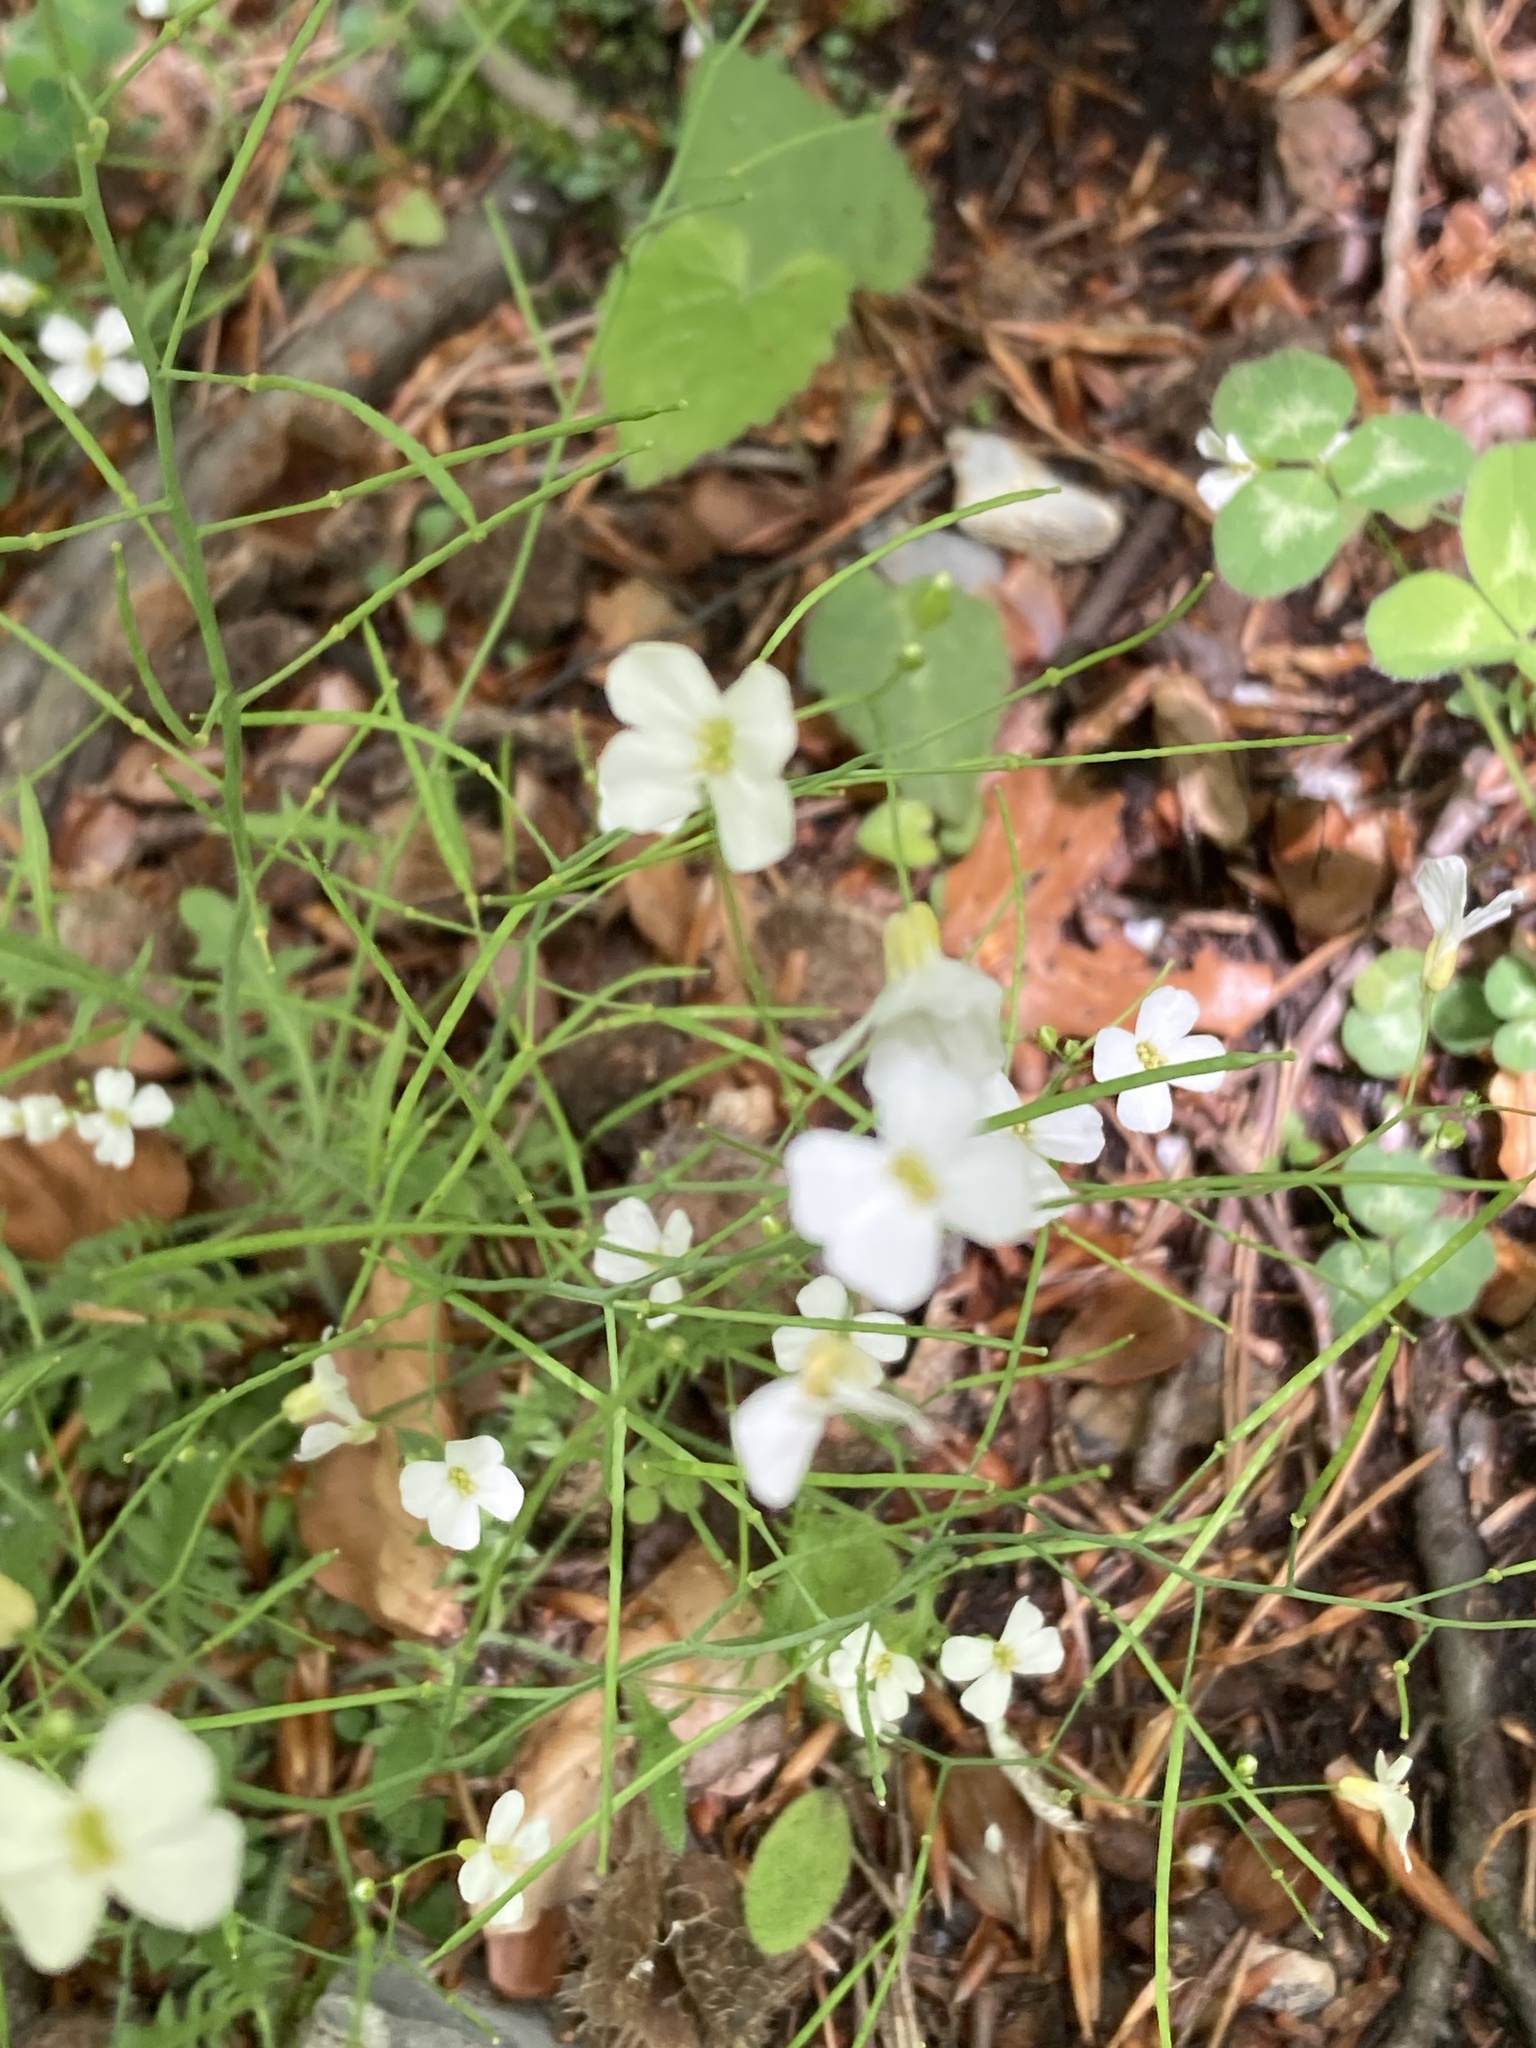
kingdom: Plantae
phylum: Tracheophyta
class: Magnoliopsida
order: Brassicales
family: Brassicaceae
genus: Arabidopsis
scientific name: Arabidopsis arenosa
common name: Sand rock-cress
